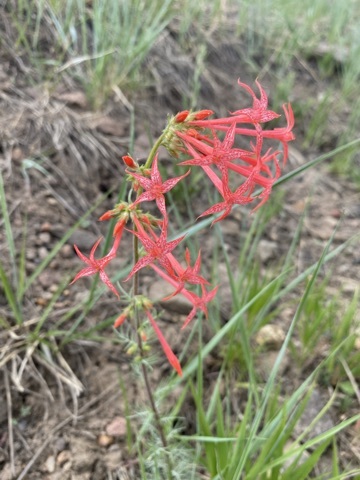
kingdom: Plantae
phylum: Tracheophyta
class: Magnoliopsida
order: Ericales
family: Polemoniaceae
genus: Ipomopsis
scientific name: Ipomopsis aggregata
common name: Scarlet gilia
